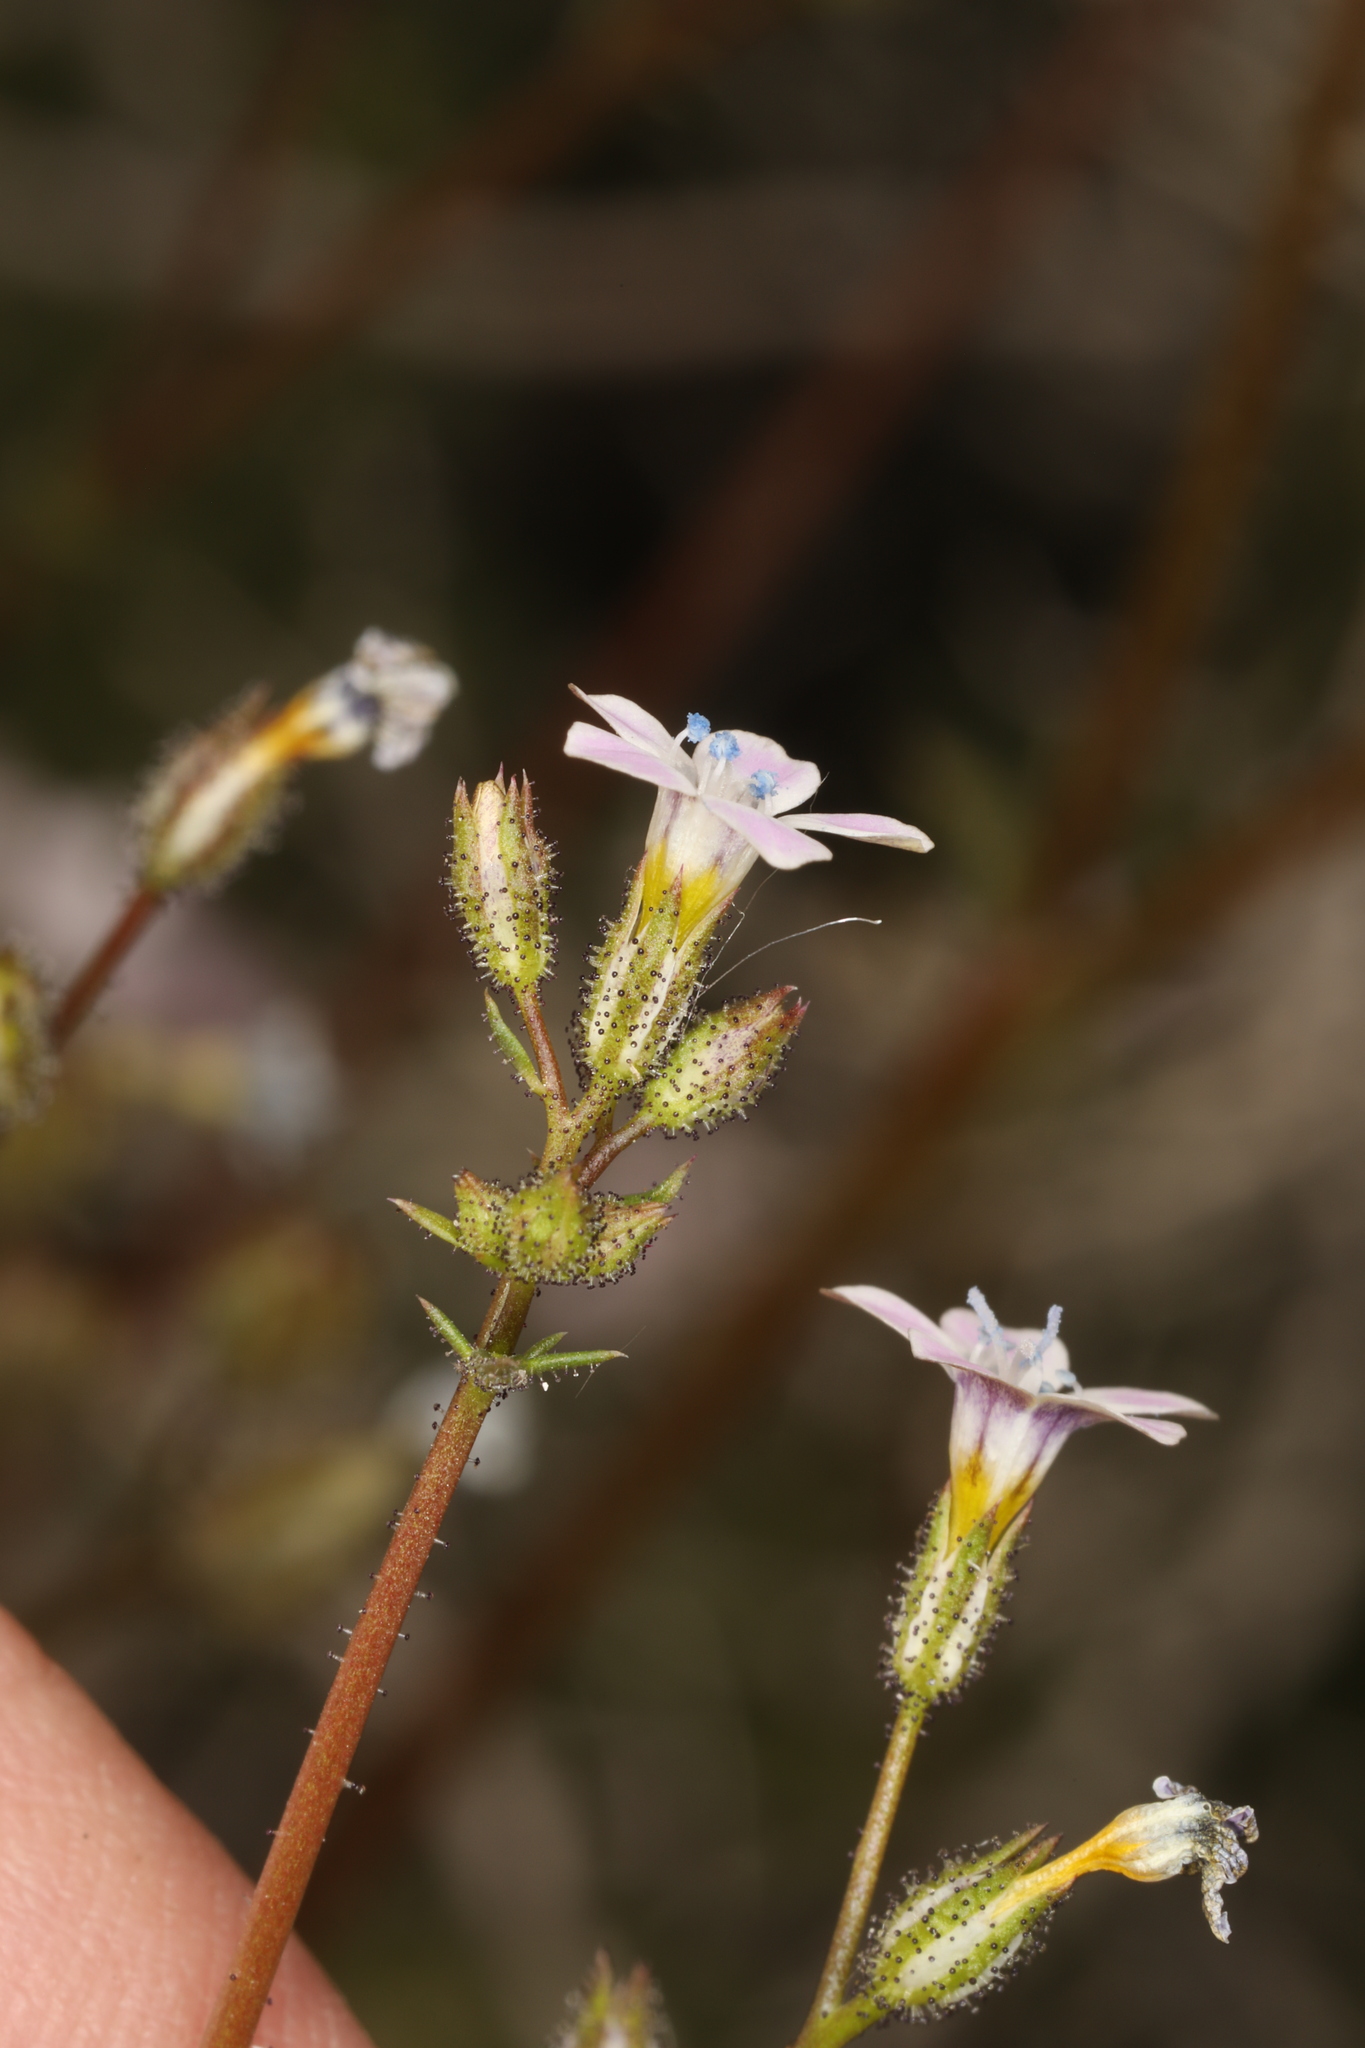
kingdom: Plantae
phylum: Tracheophyta
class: Magnoliopsida
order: Ericales
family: Polemoniaceae
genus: Gilia
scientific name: Gilia stellata
